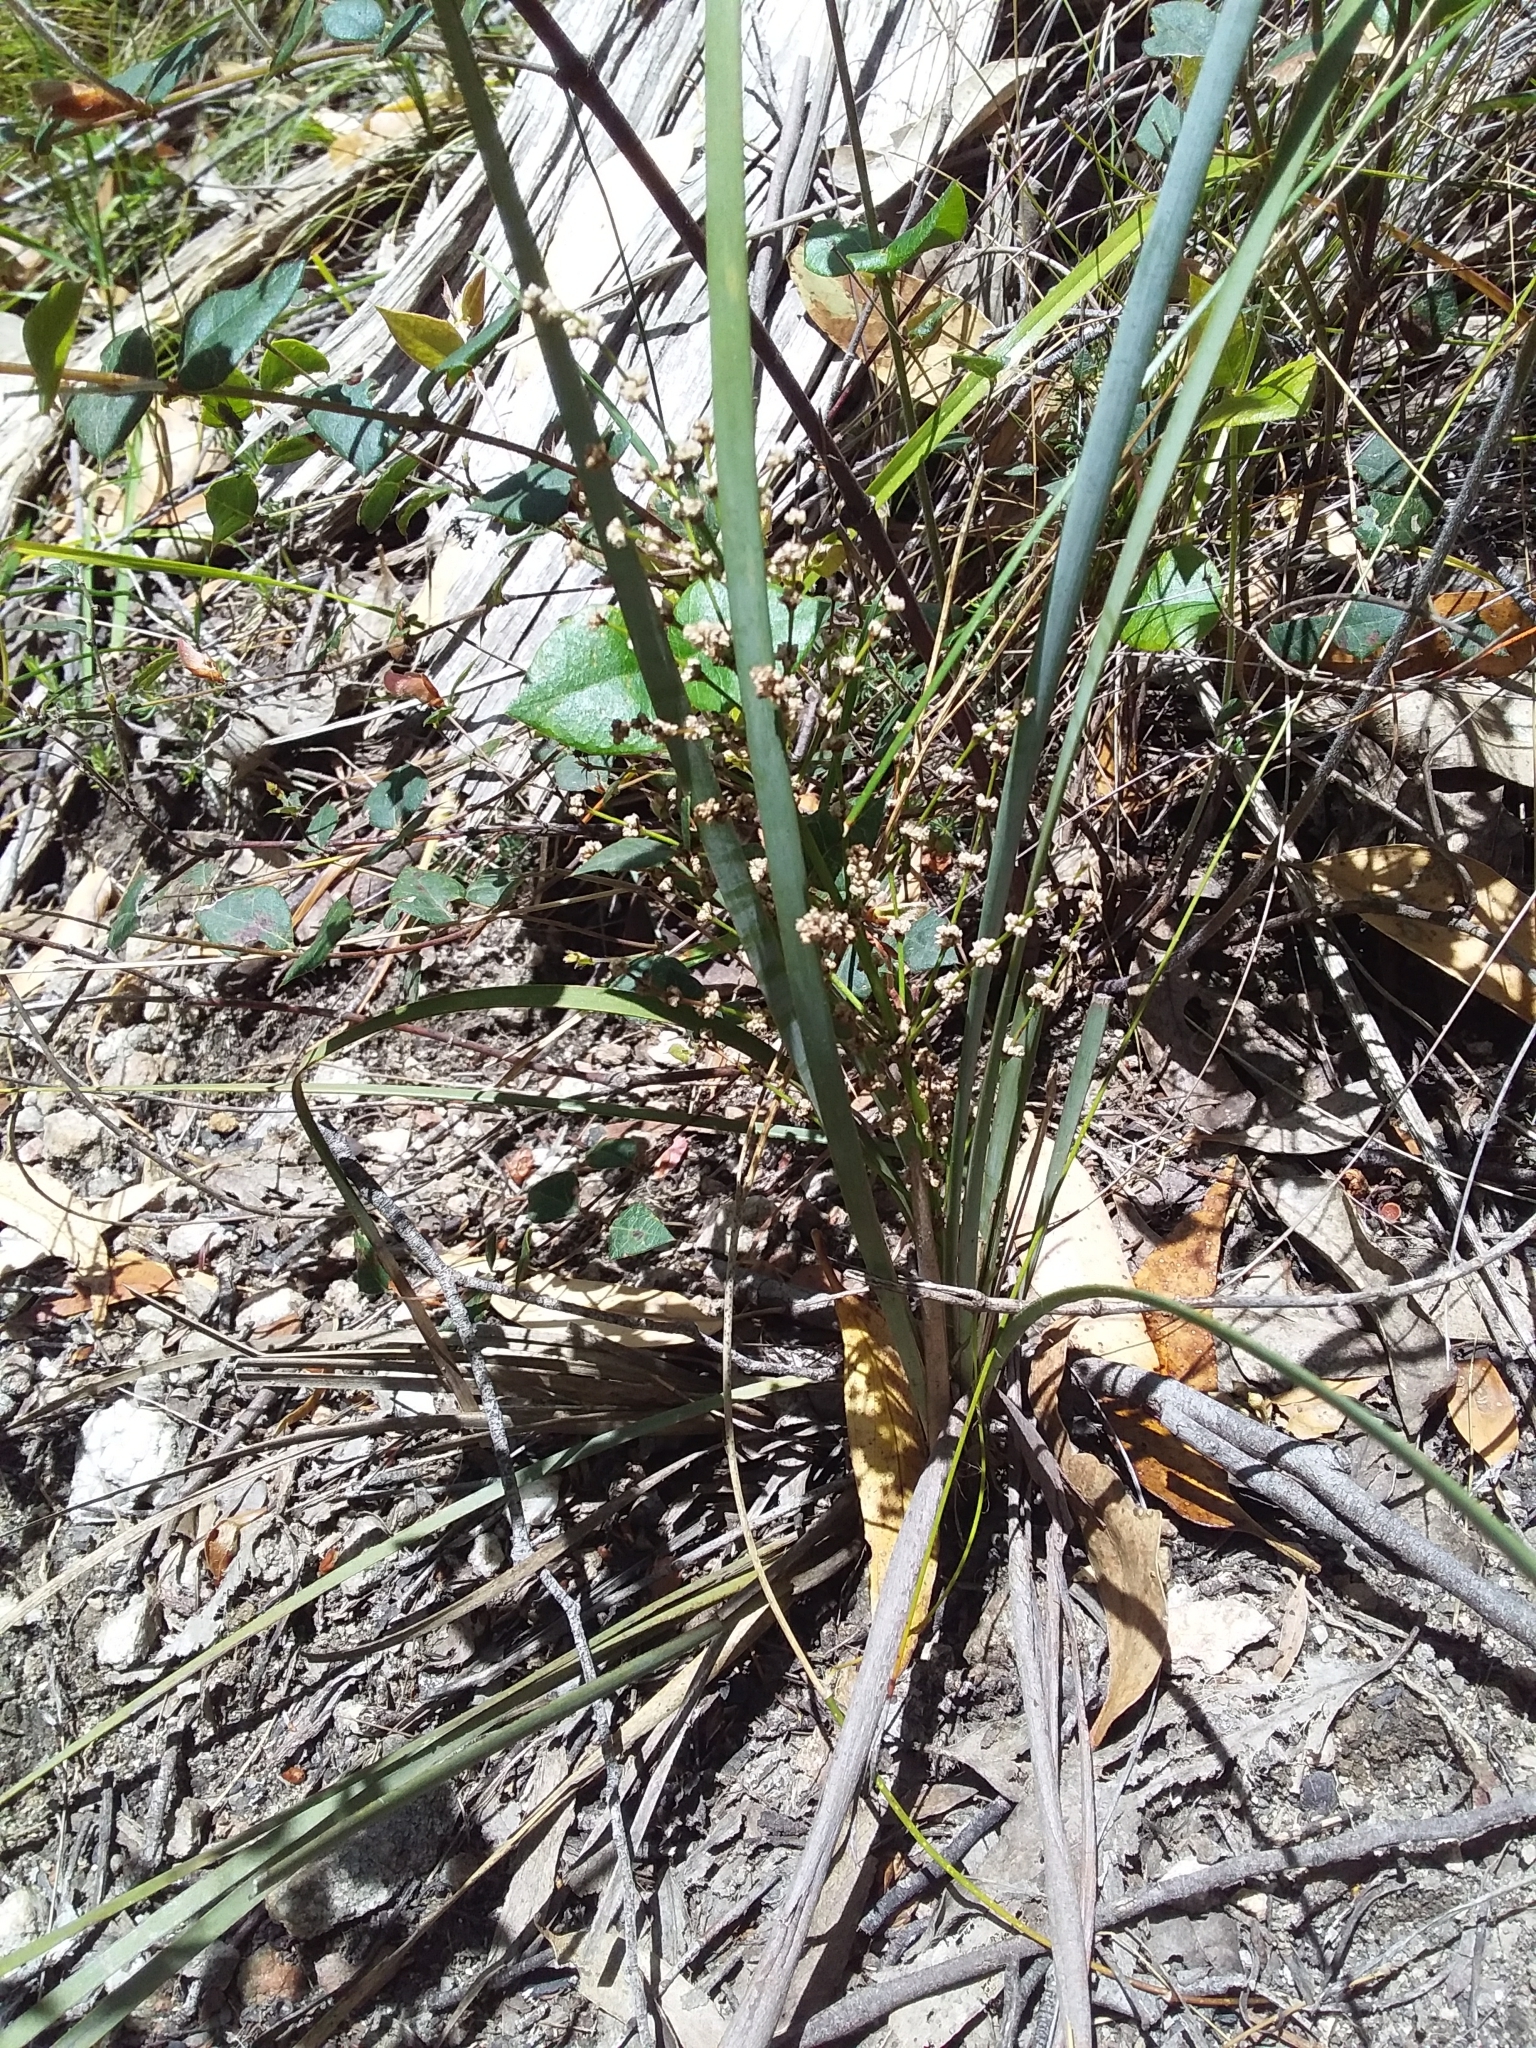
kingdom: Plantae
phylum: Tracheophyta
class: Liliopsida
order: Asparagales
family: Asparagaceae
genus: Lomandra
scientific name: Lomandra multiflora
